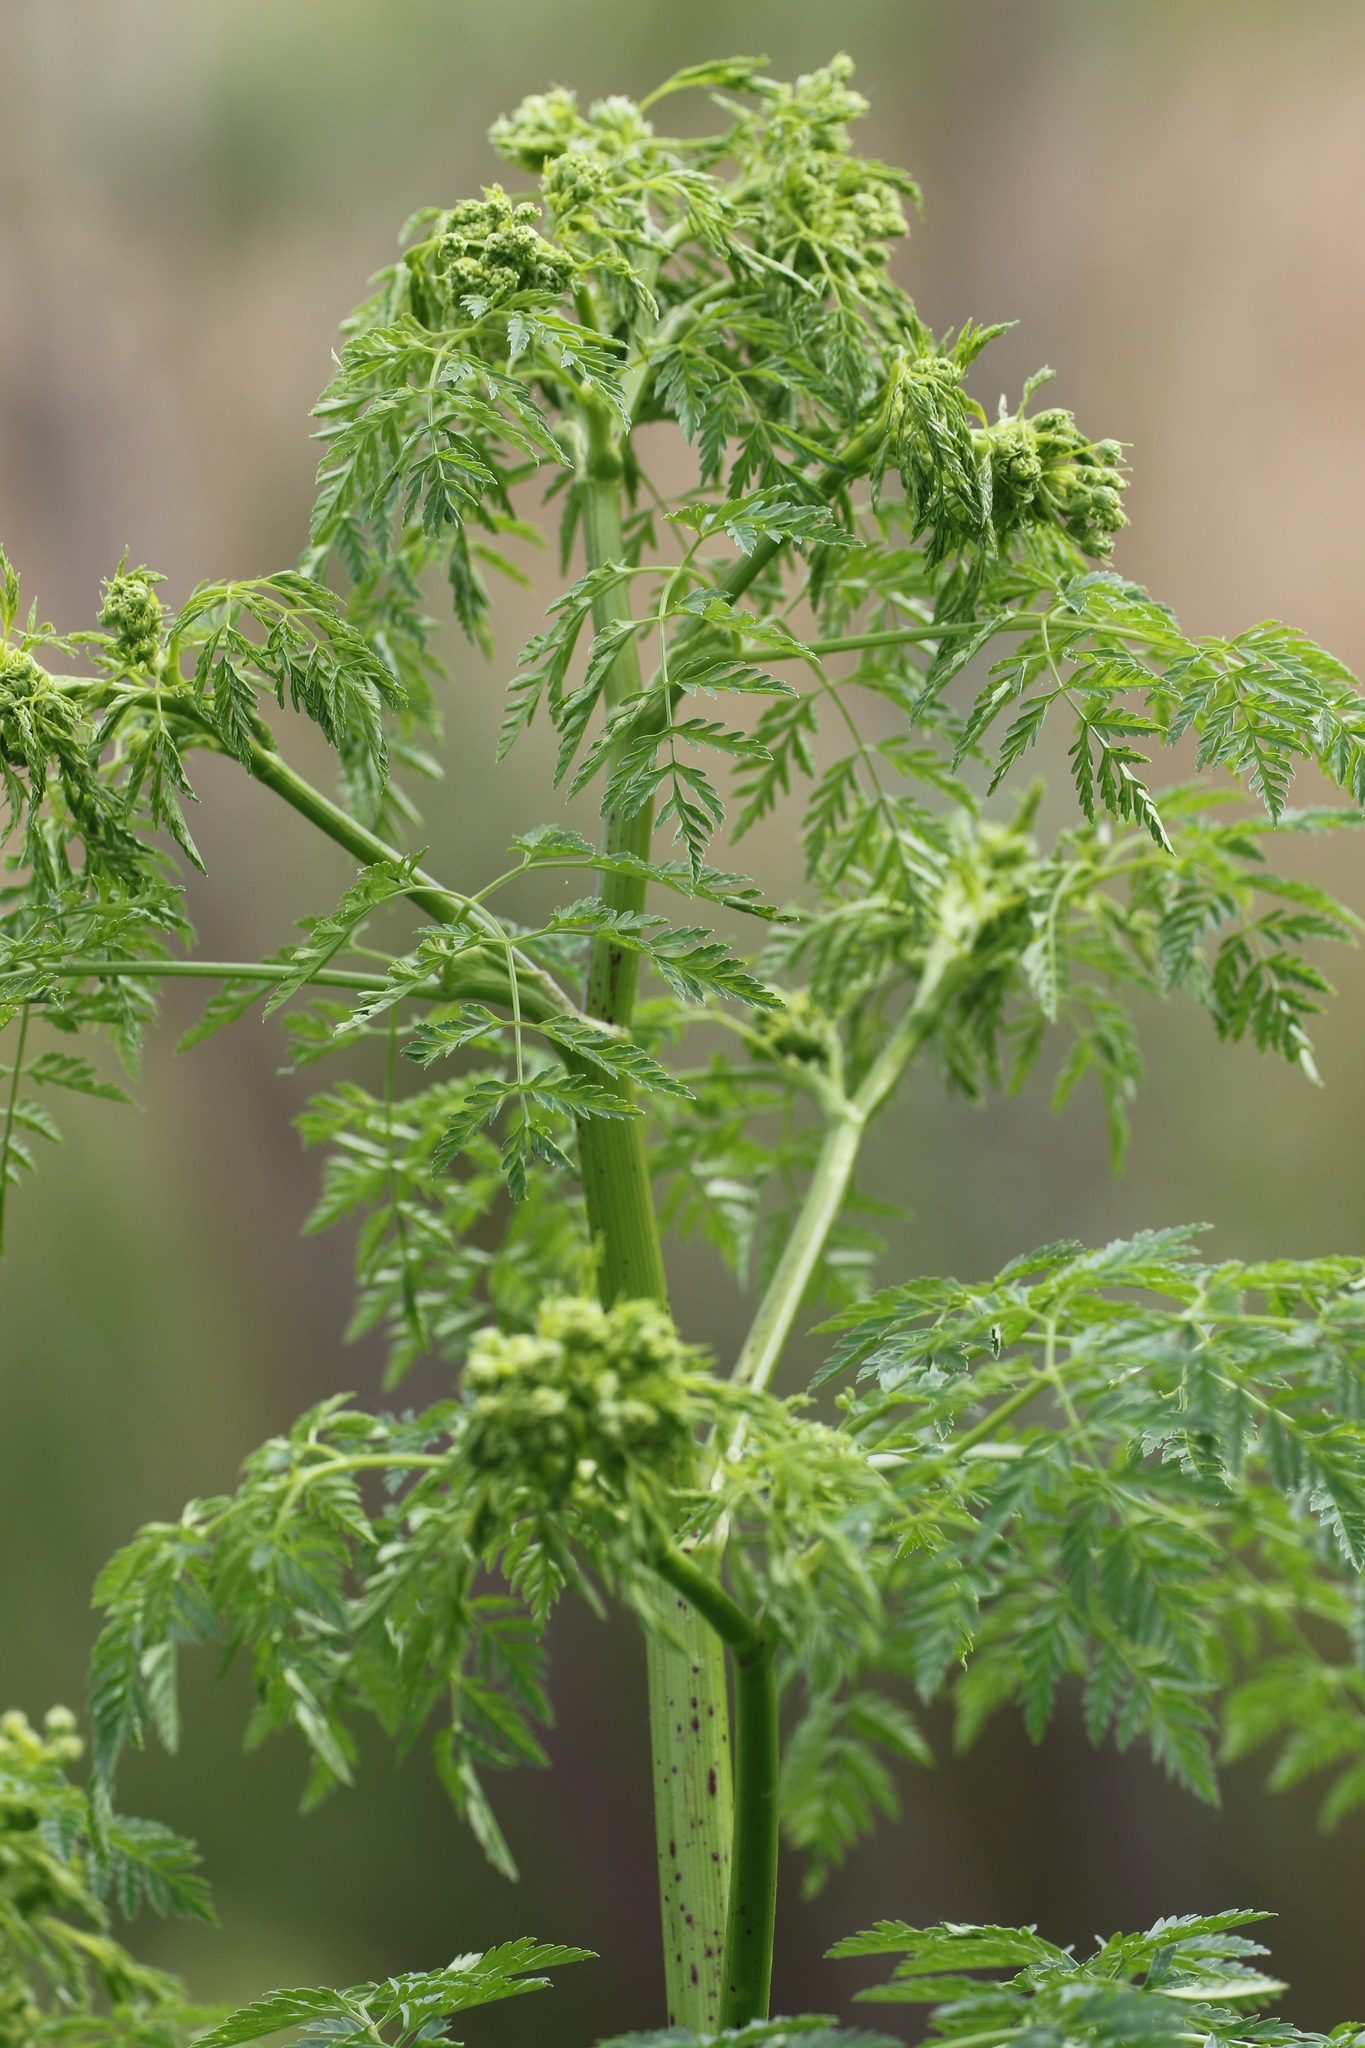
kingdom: Plantae
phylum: Tracheophyta
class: Magnoliopsida
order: Apiales
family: Apiaceae
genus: Conium
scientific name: Conium maculatum
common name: Hemlock
